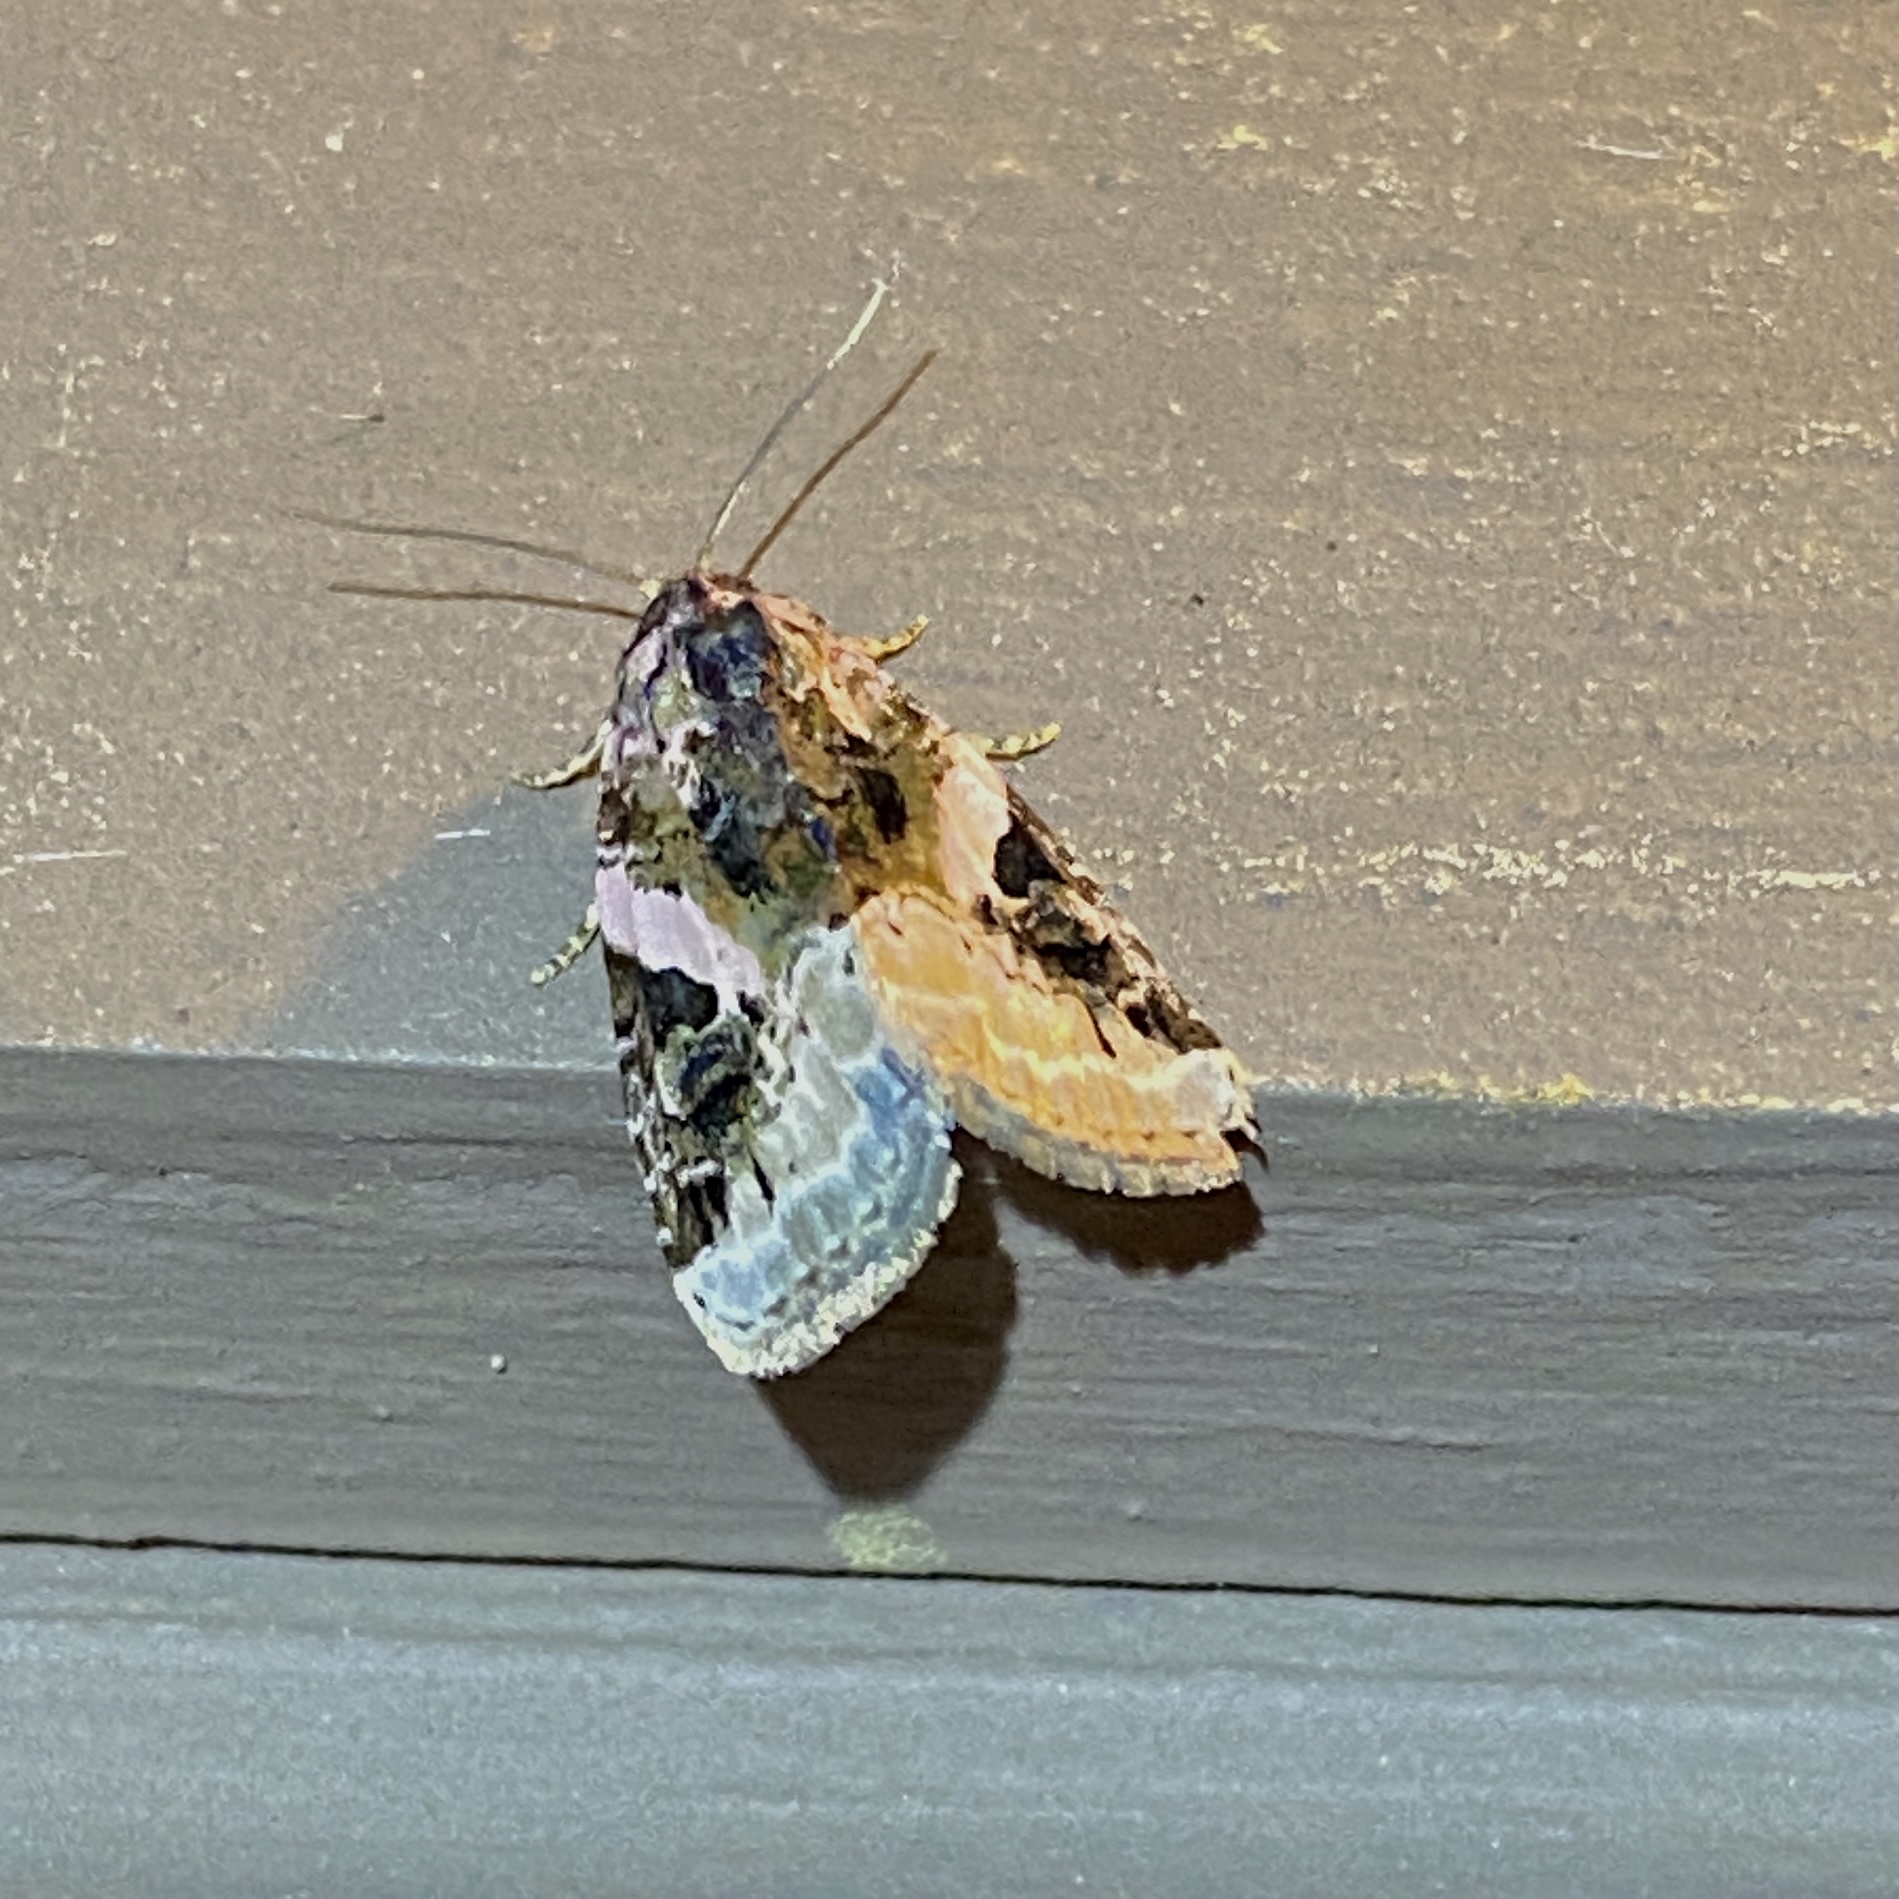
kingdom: Animalia
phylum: Arthropoda
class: Insecta
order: Lepidoptera
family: Noctuidae
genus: Pseudeustrotia
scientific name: Pseudeustrotia carneola
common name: Pink-barred lithacodia moth
